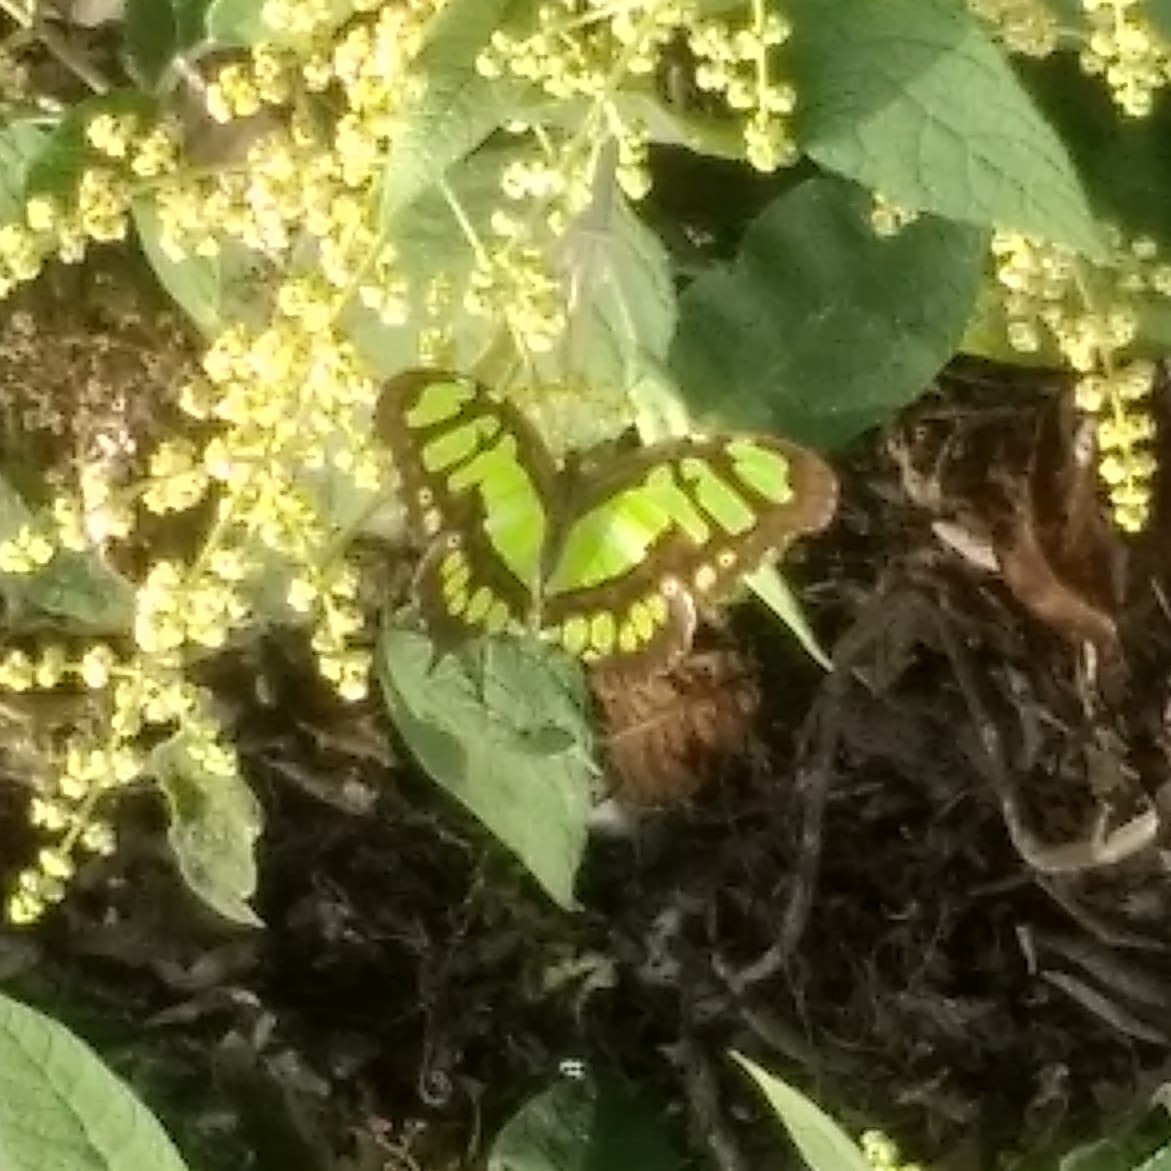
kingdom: Animalia
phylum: Arthropoda
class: Insecta
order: Lepidoptera
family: Nymphalidae
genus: Siproeta
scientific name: Siproeta stelenes
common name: Malachite
